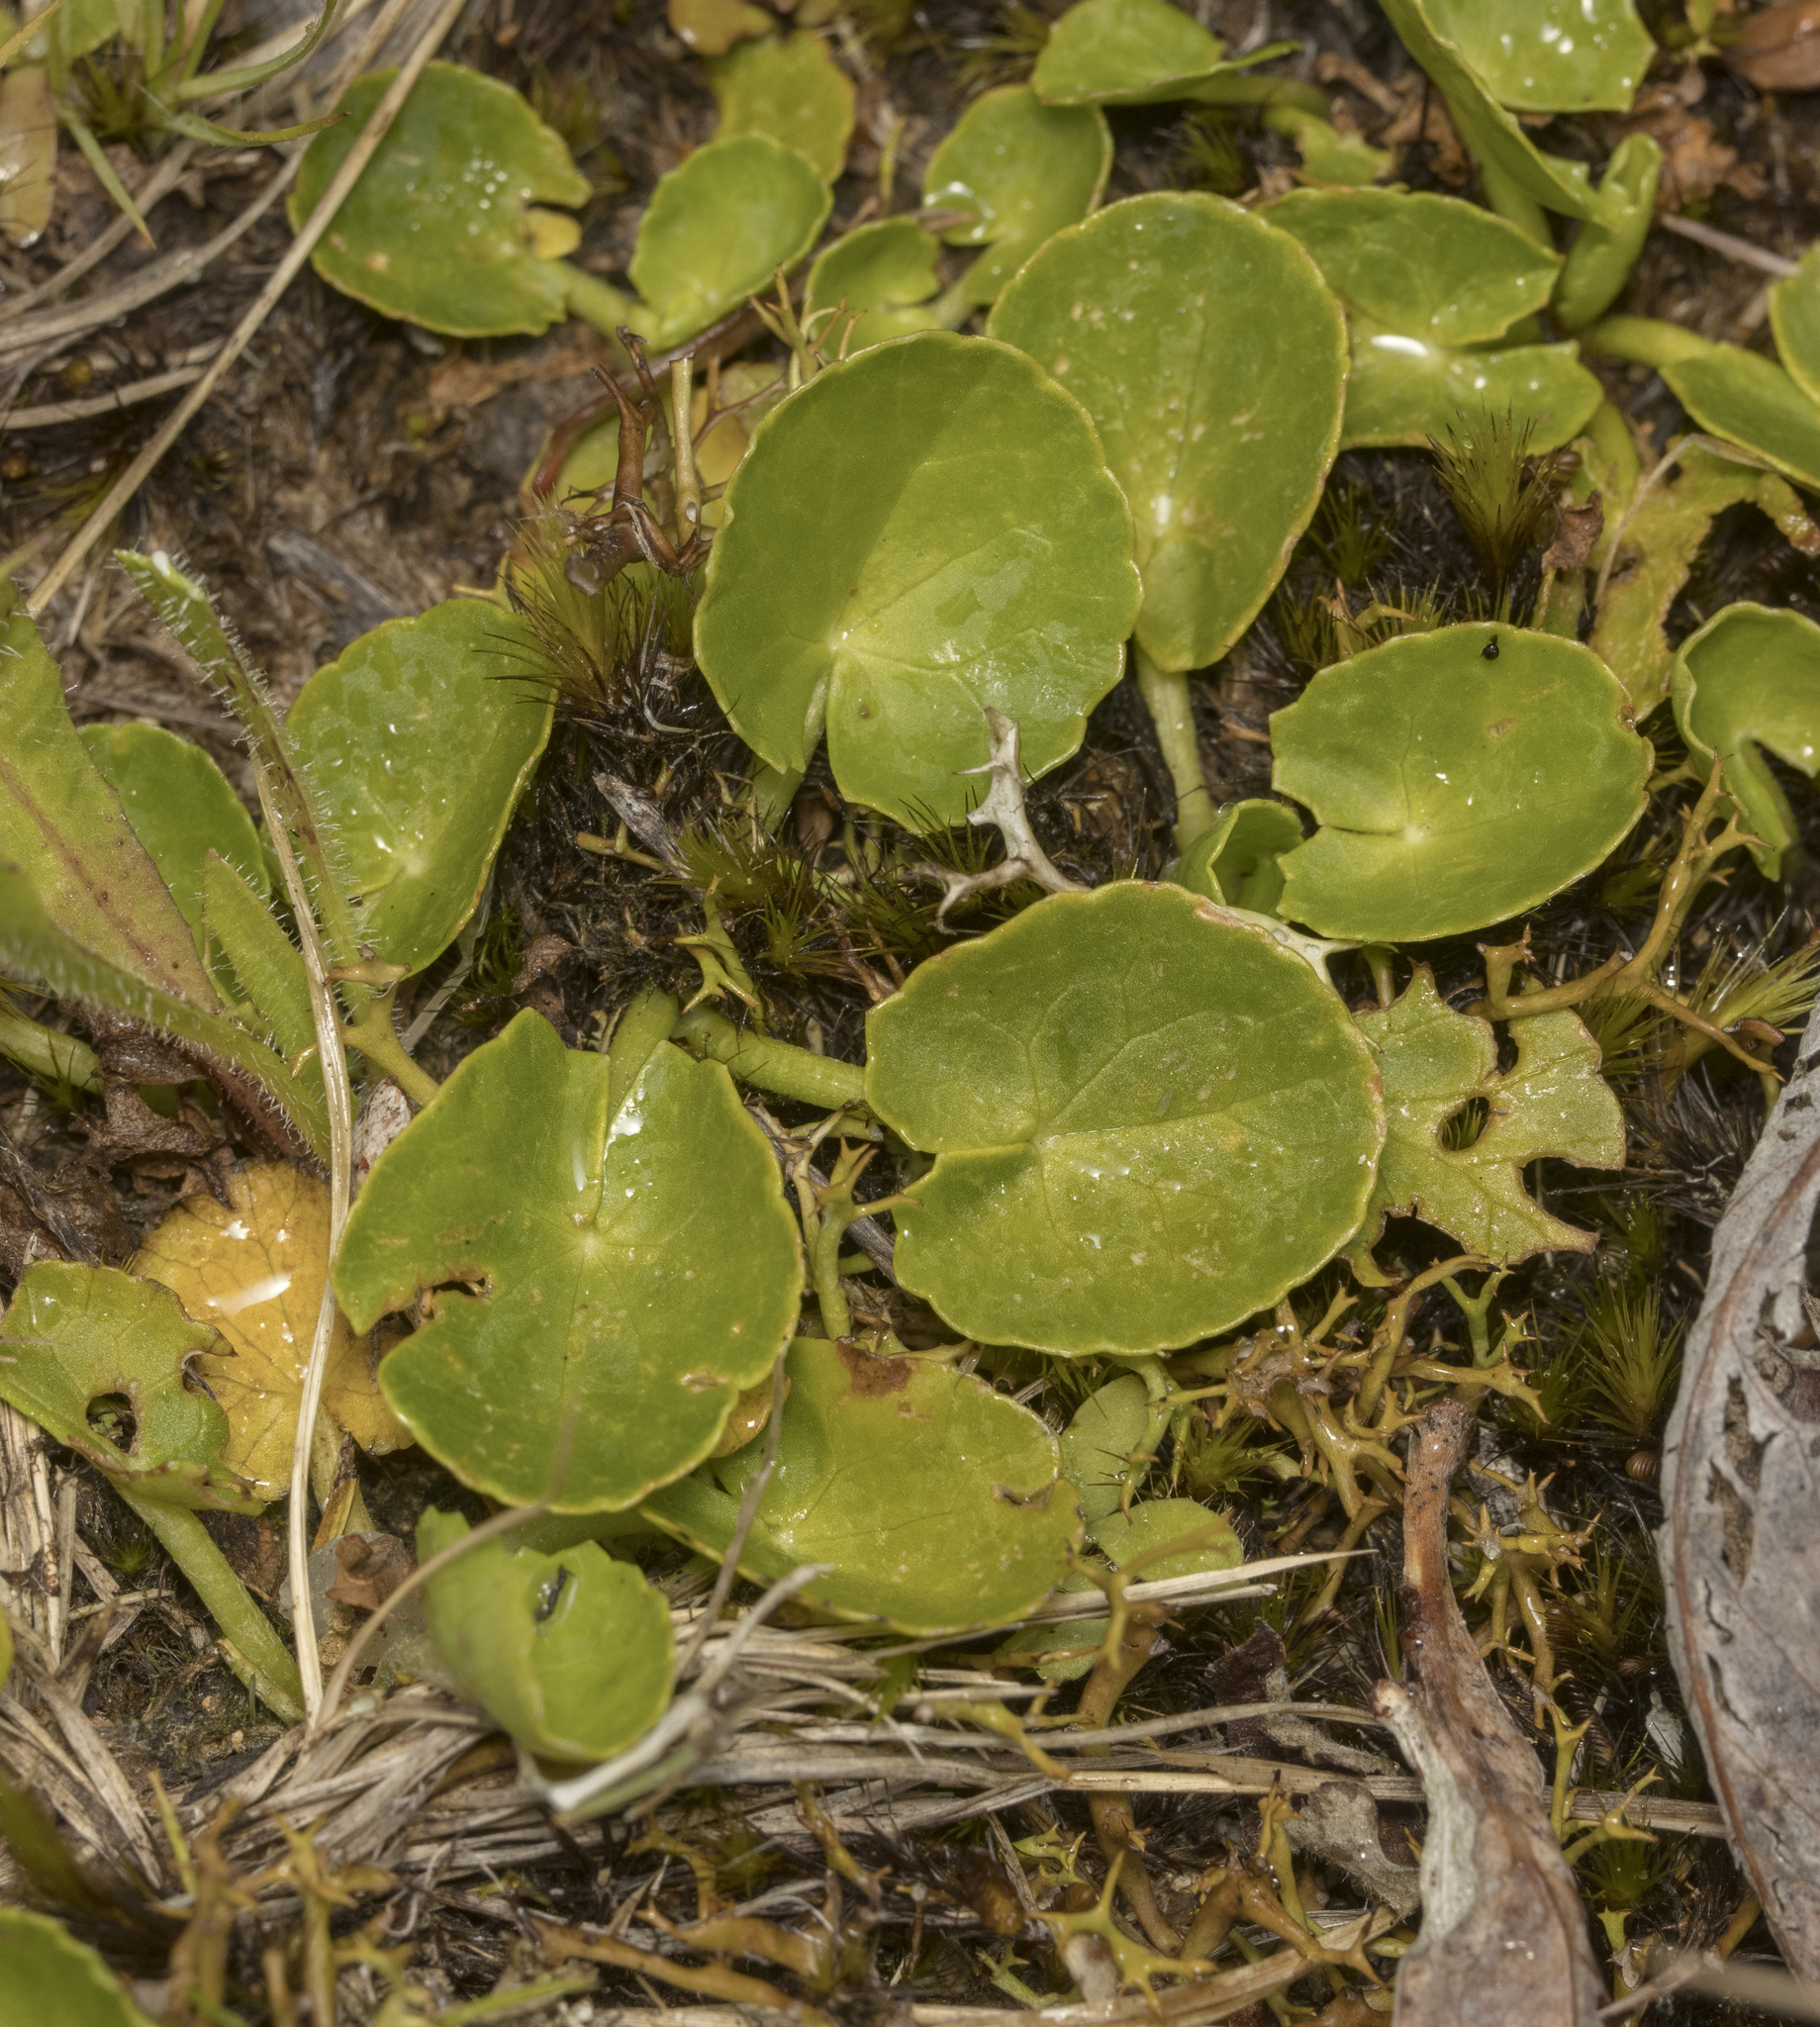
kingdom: Plantae
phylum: Tracheophyta
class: Magnoliopsida
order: Apiales
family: Apiaceae
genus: Centella
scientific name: Centella asiatica
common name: Spadeleaf
